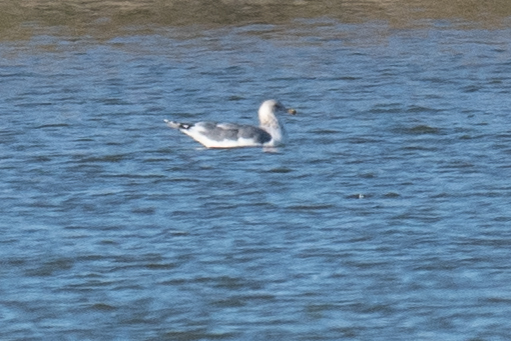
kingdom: Animalia
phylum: Chordata
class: Aves
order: Charadriiformes
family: Laridae
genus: Larus
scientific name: Larus californicus
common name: California gull
